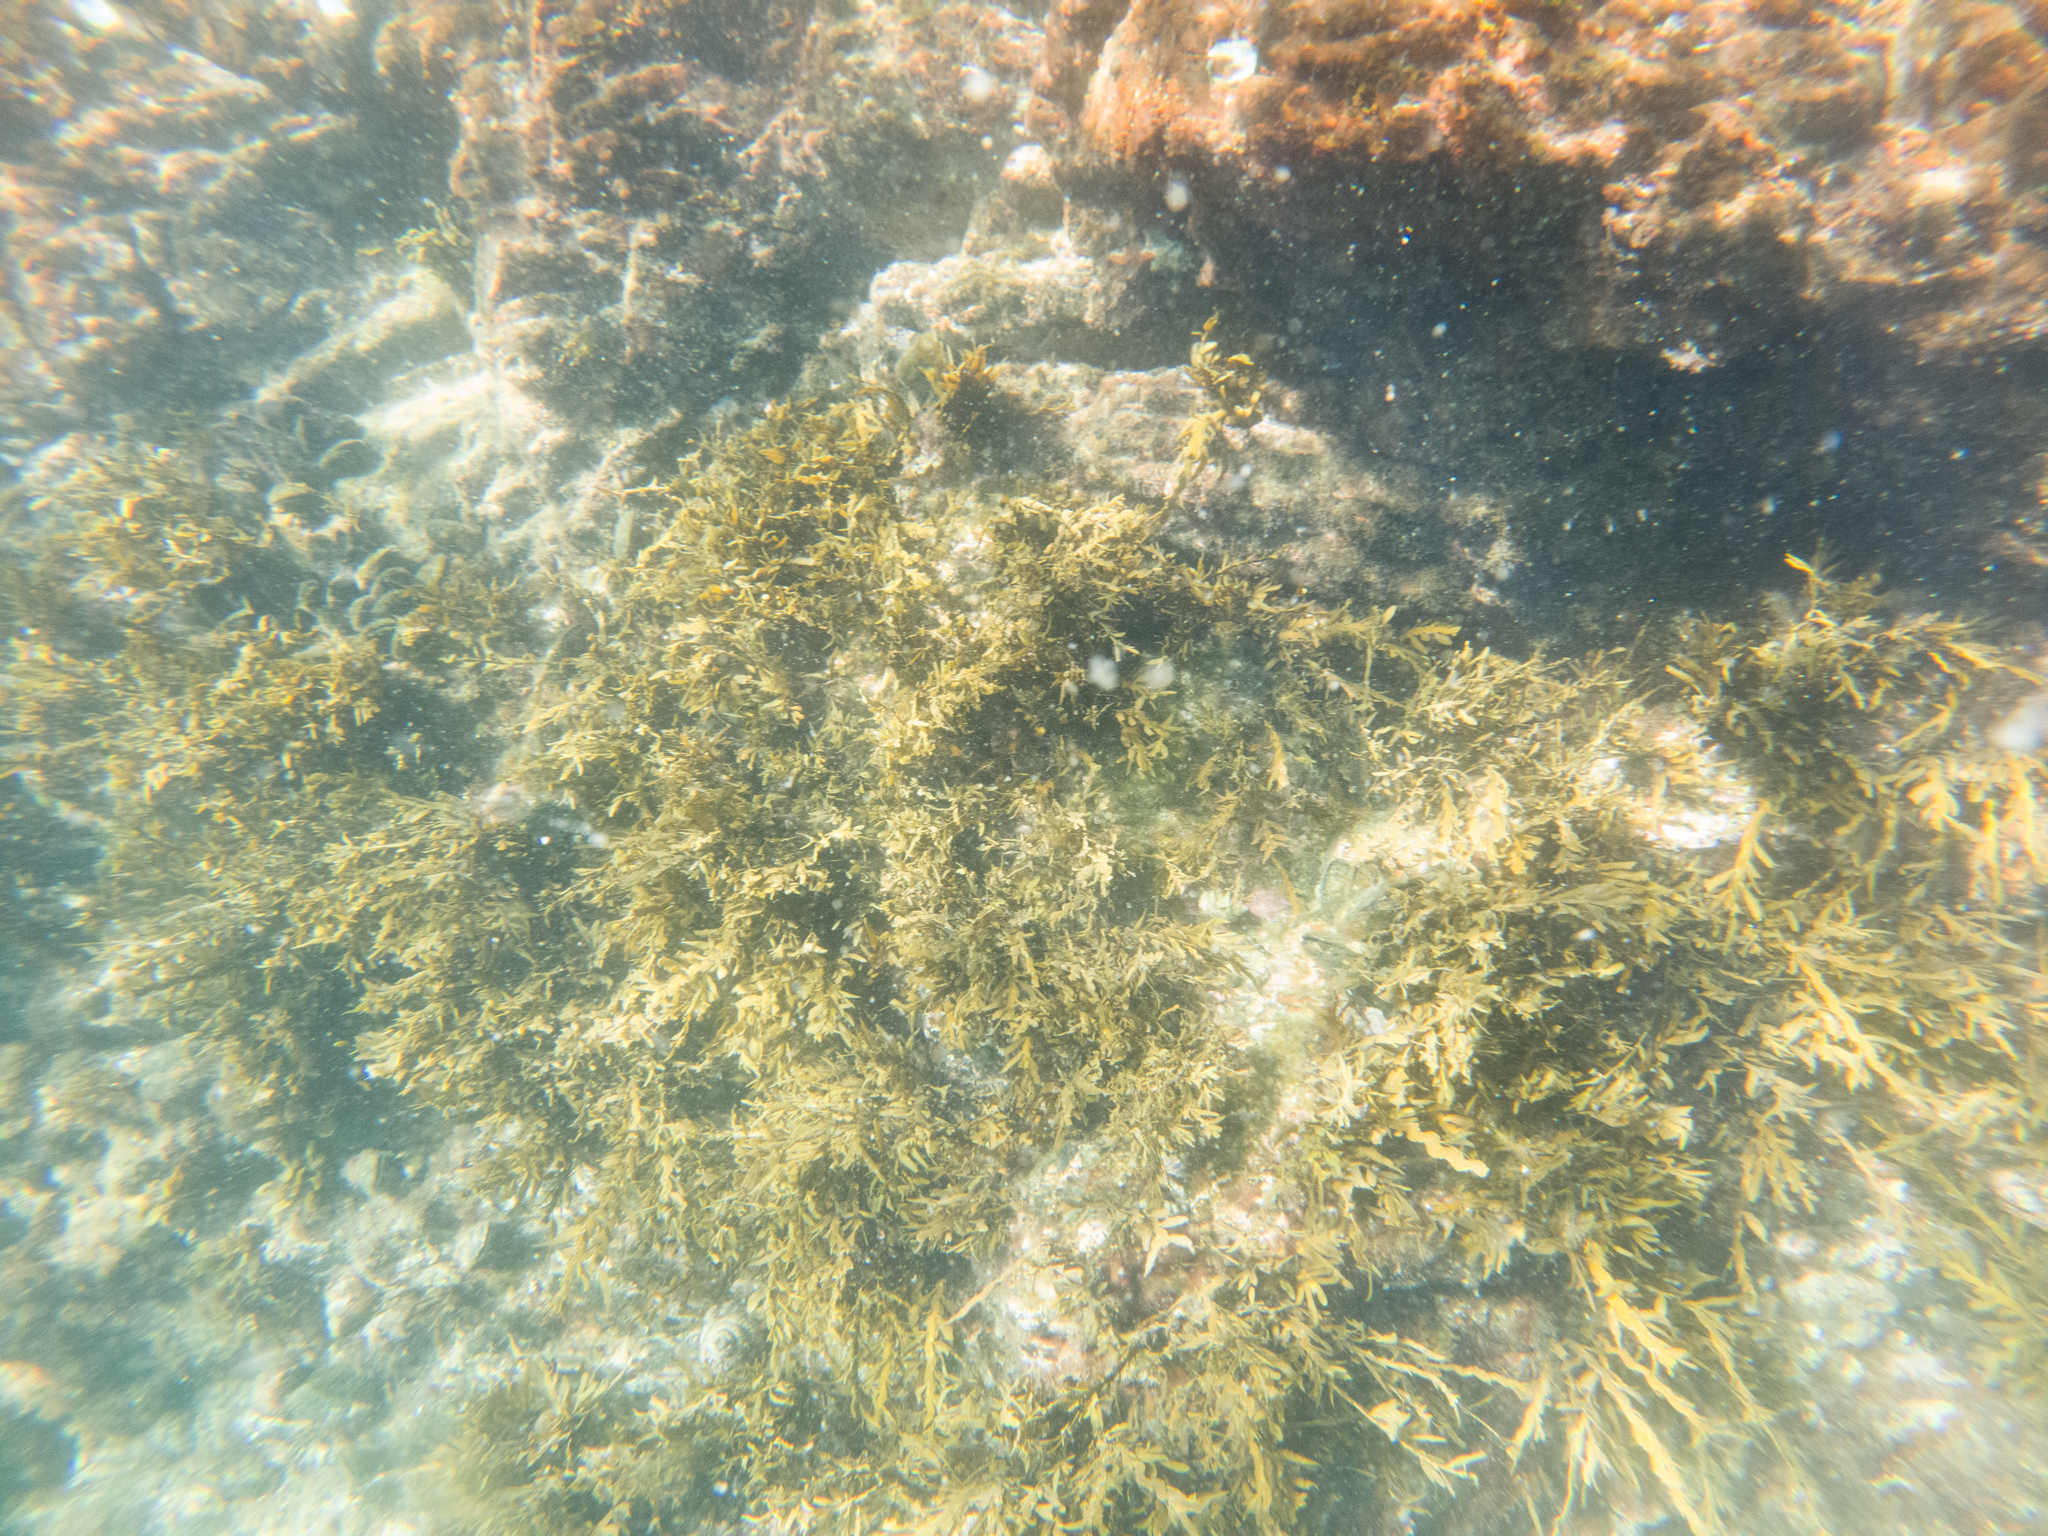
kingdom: Chromista
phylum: Ochrophyta
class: Phaeophyceae
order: Fucales
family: Sargassaceae
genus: Carpophyllum
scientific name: Carpophyllum maschalocarpum
